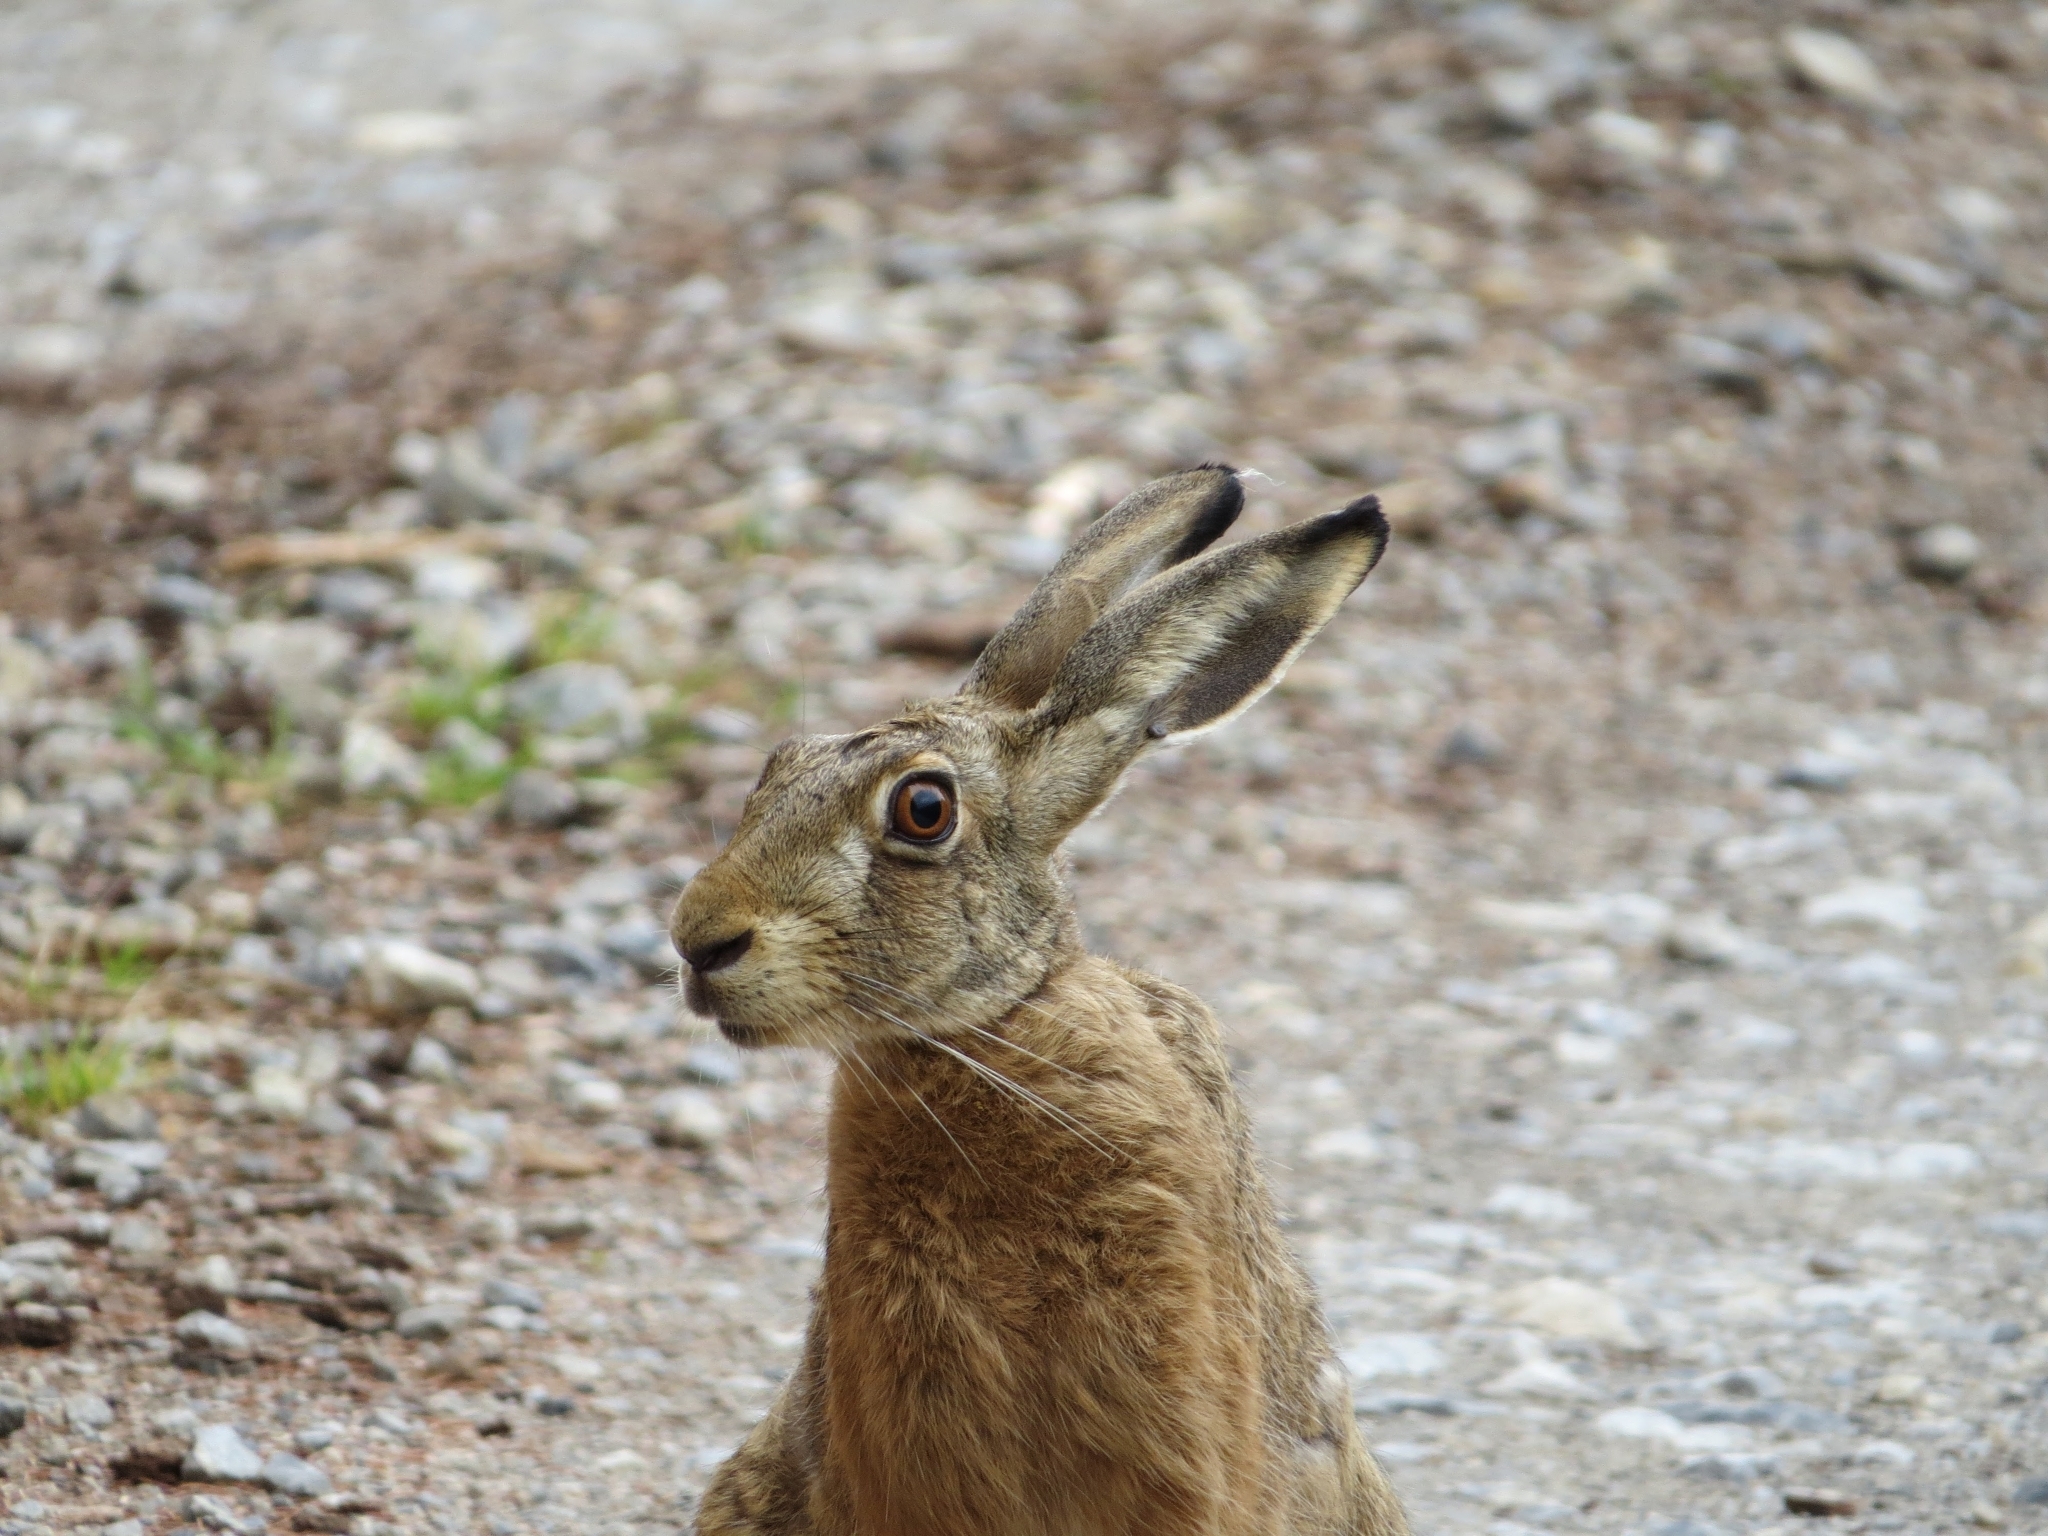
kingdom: Animalia
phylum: Chordata
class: Mammalia
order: Lagomorpha
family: Leporidae
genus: Lepus
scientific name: Lepus europaeus
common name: European hare
